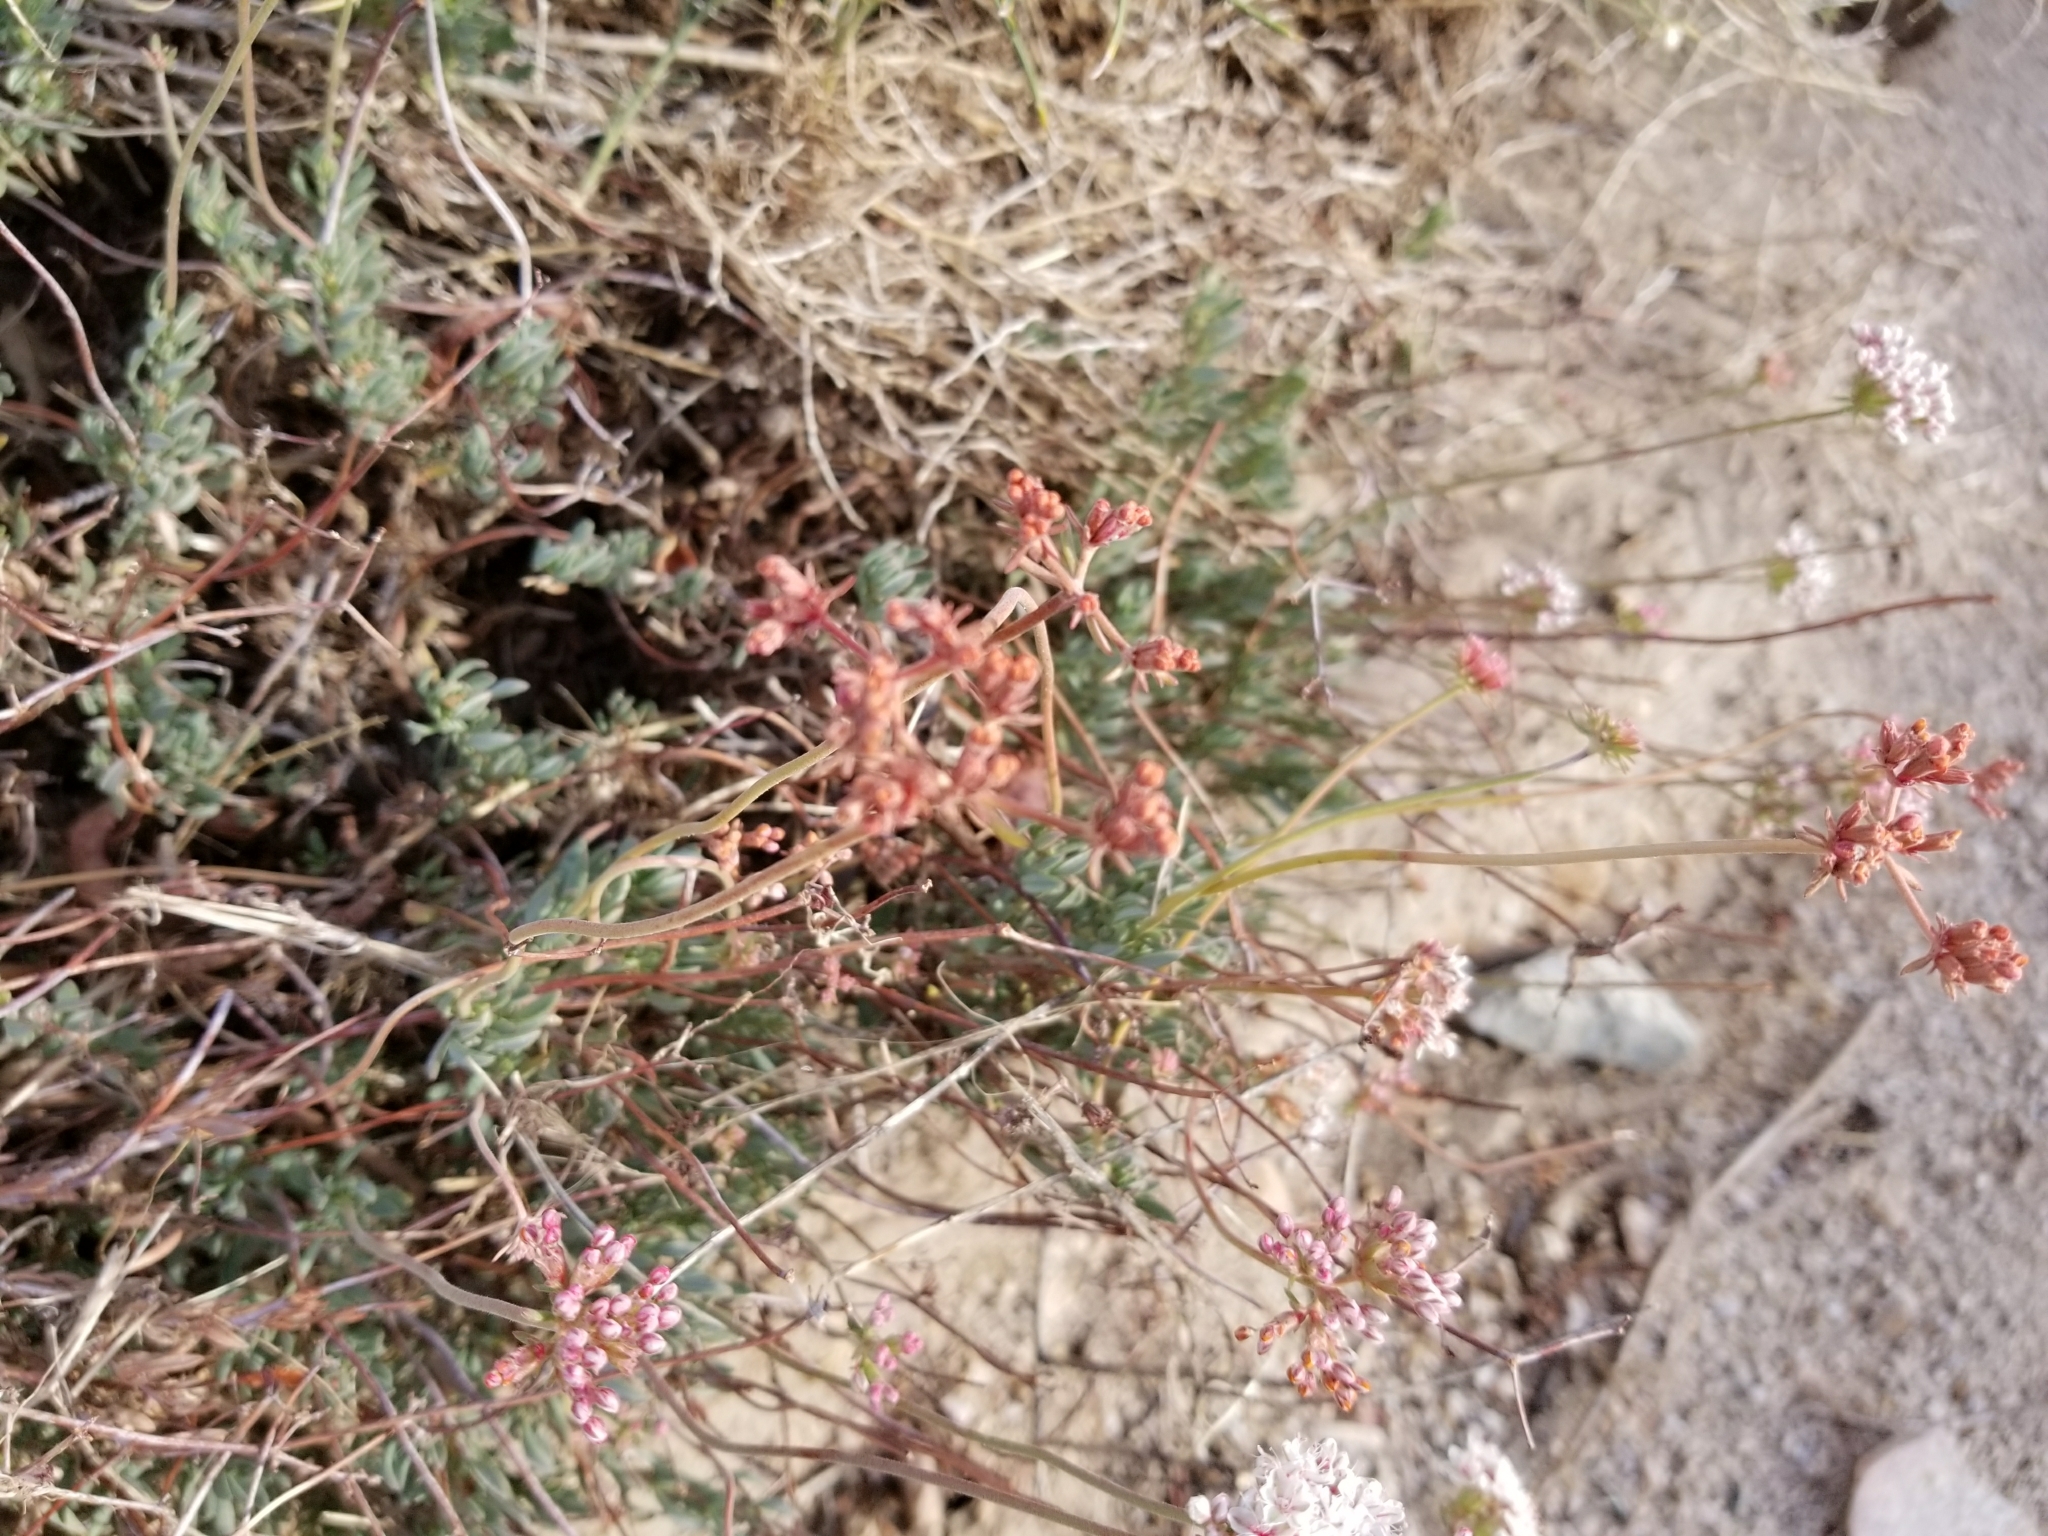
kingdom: Plantae
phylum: Tracheophyta
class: Magnoliopsida
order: Caryophyllales
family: Polygonaceae
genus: Eriogonum
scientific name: Eriogonum fasciculatum
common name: California wild buckwheat
